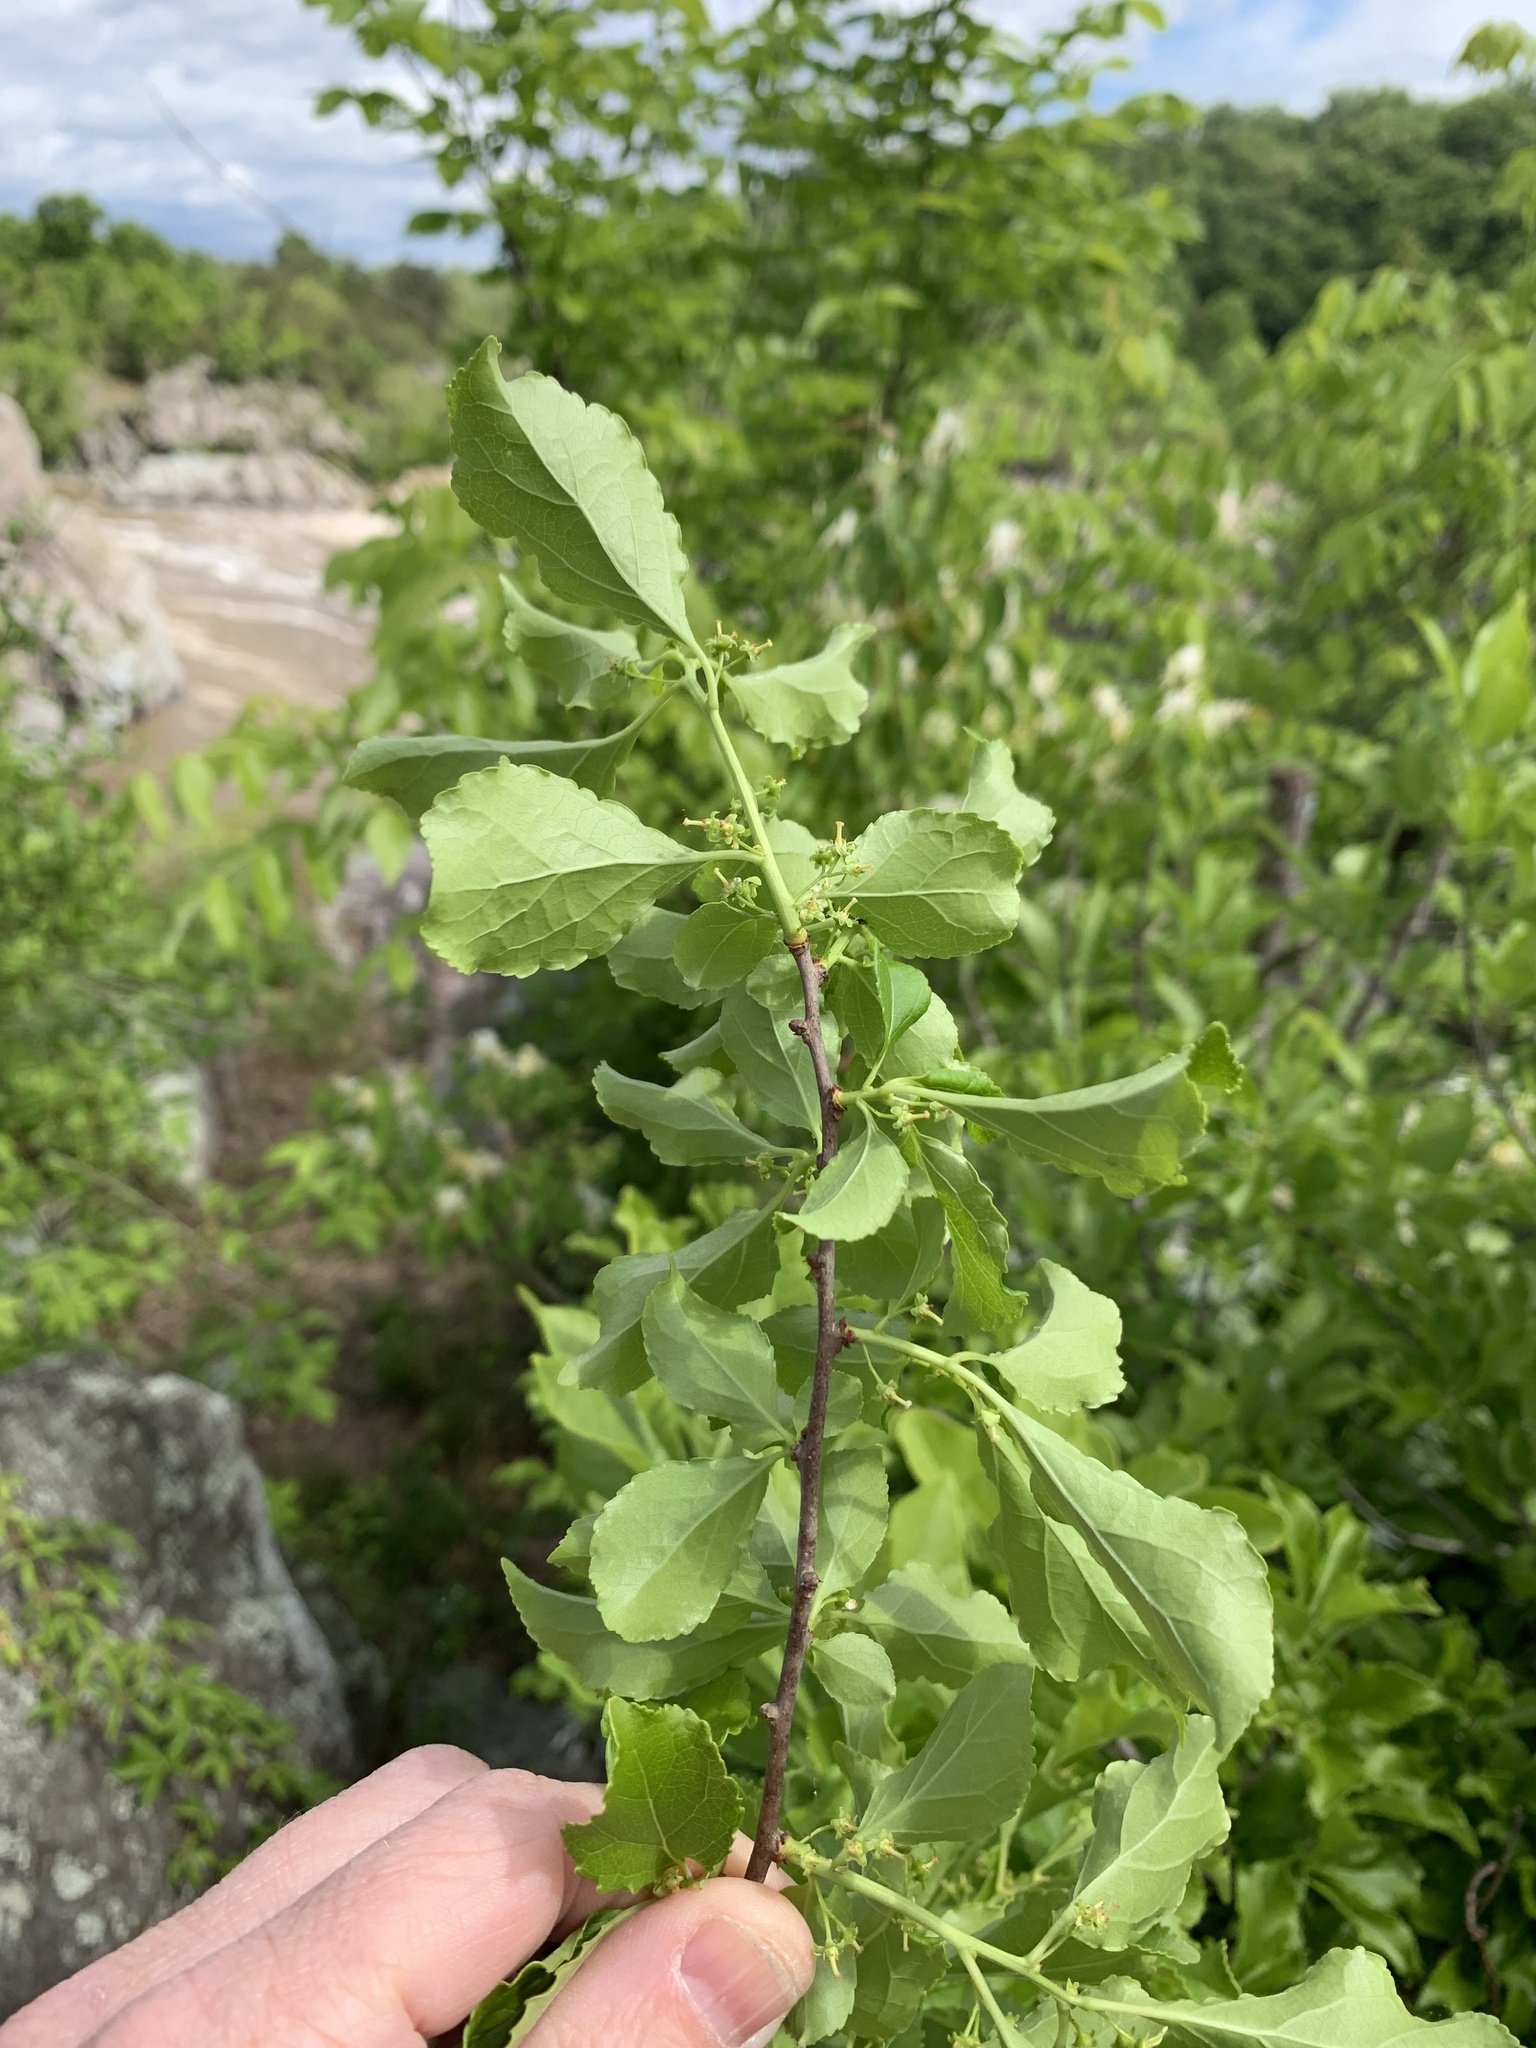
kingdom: Plantae
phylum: Tracheophyta
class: Magnoliopsida
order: Celastrales
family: Celastraceae
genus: Celastrus
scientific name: Celastrus orbiculatus
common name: Oriental bittersweet
